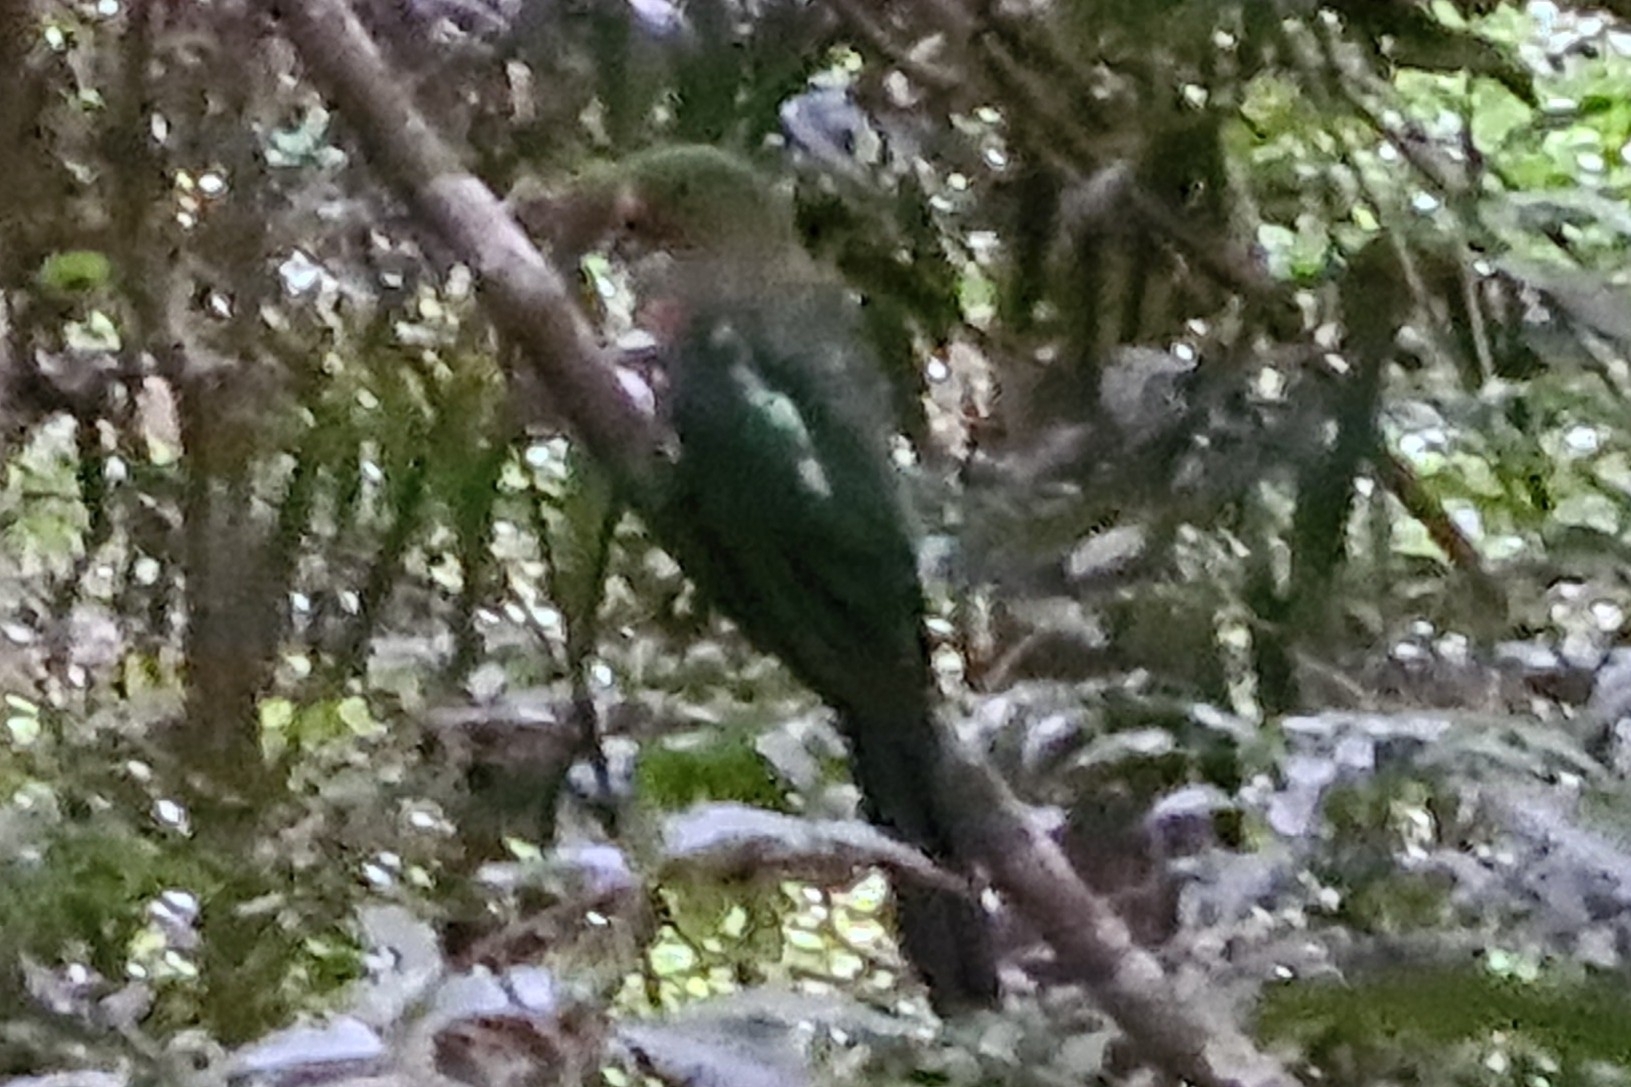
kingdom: Animalia
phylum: Chordata
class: Aves
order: Psittaciformes
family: Psittacidae
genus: Alisterus
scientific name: Alisterus scapularis
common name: Australian king parrot
